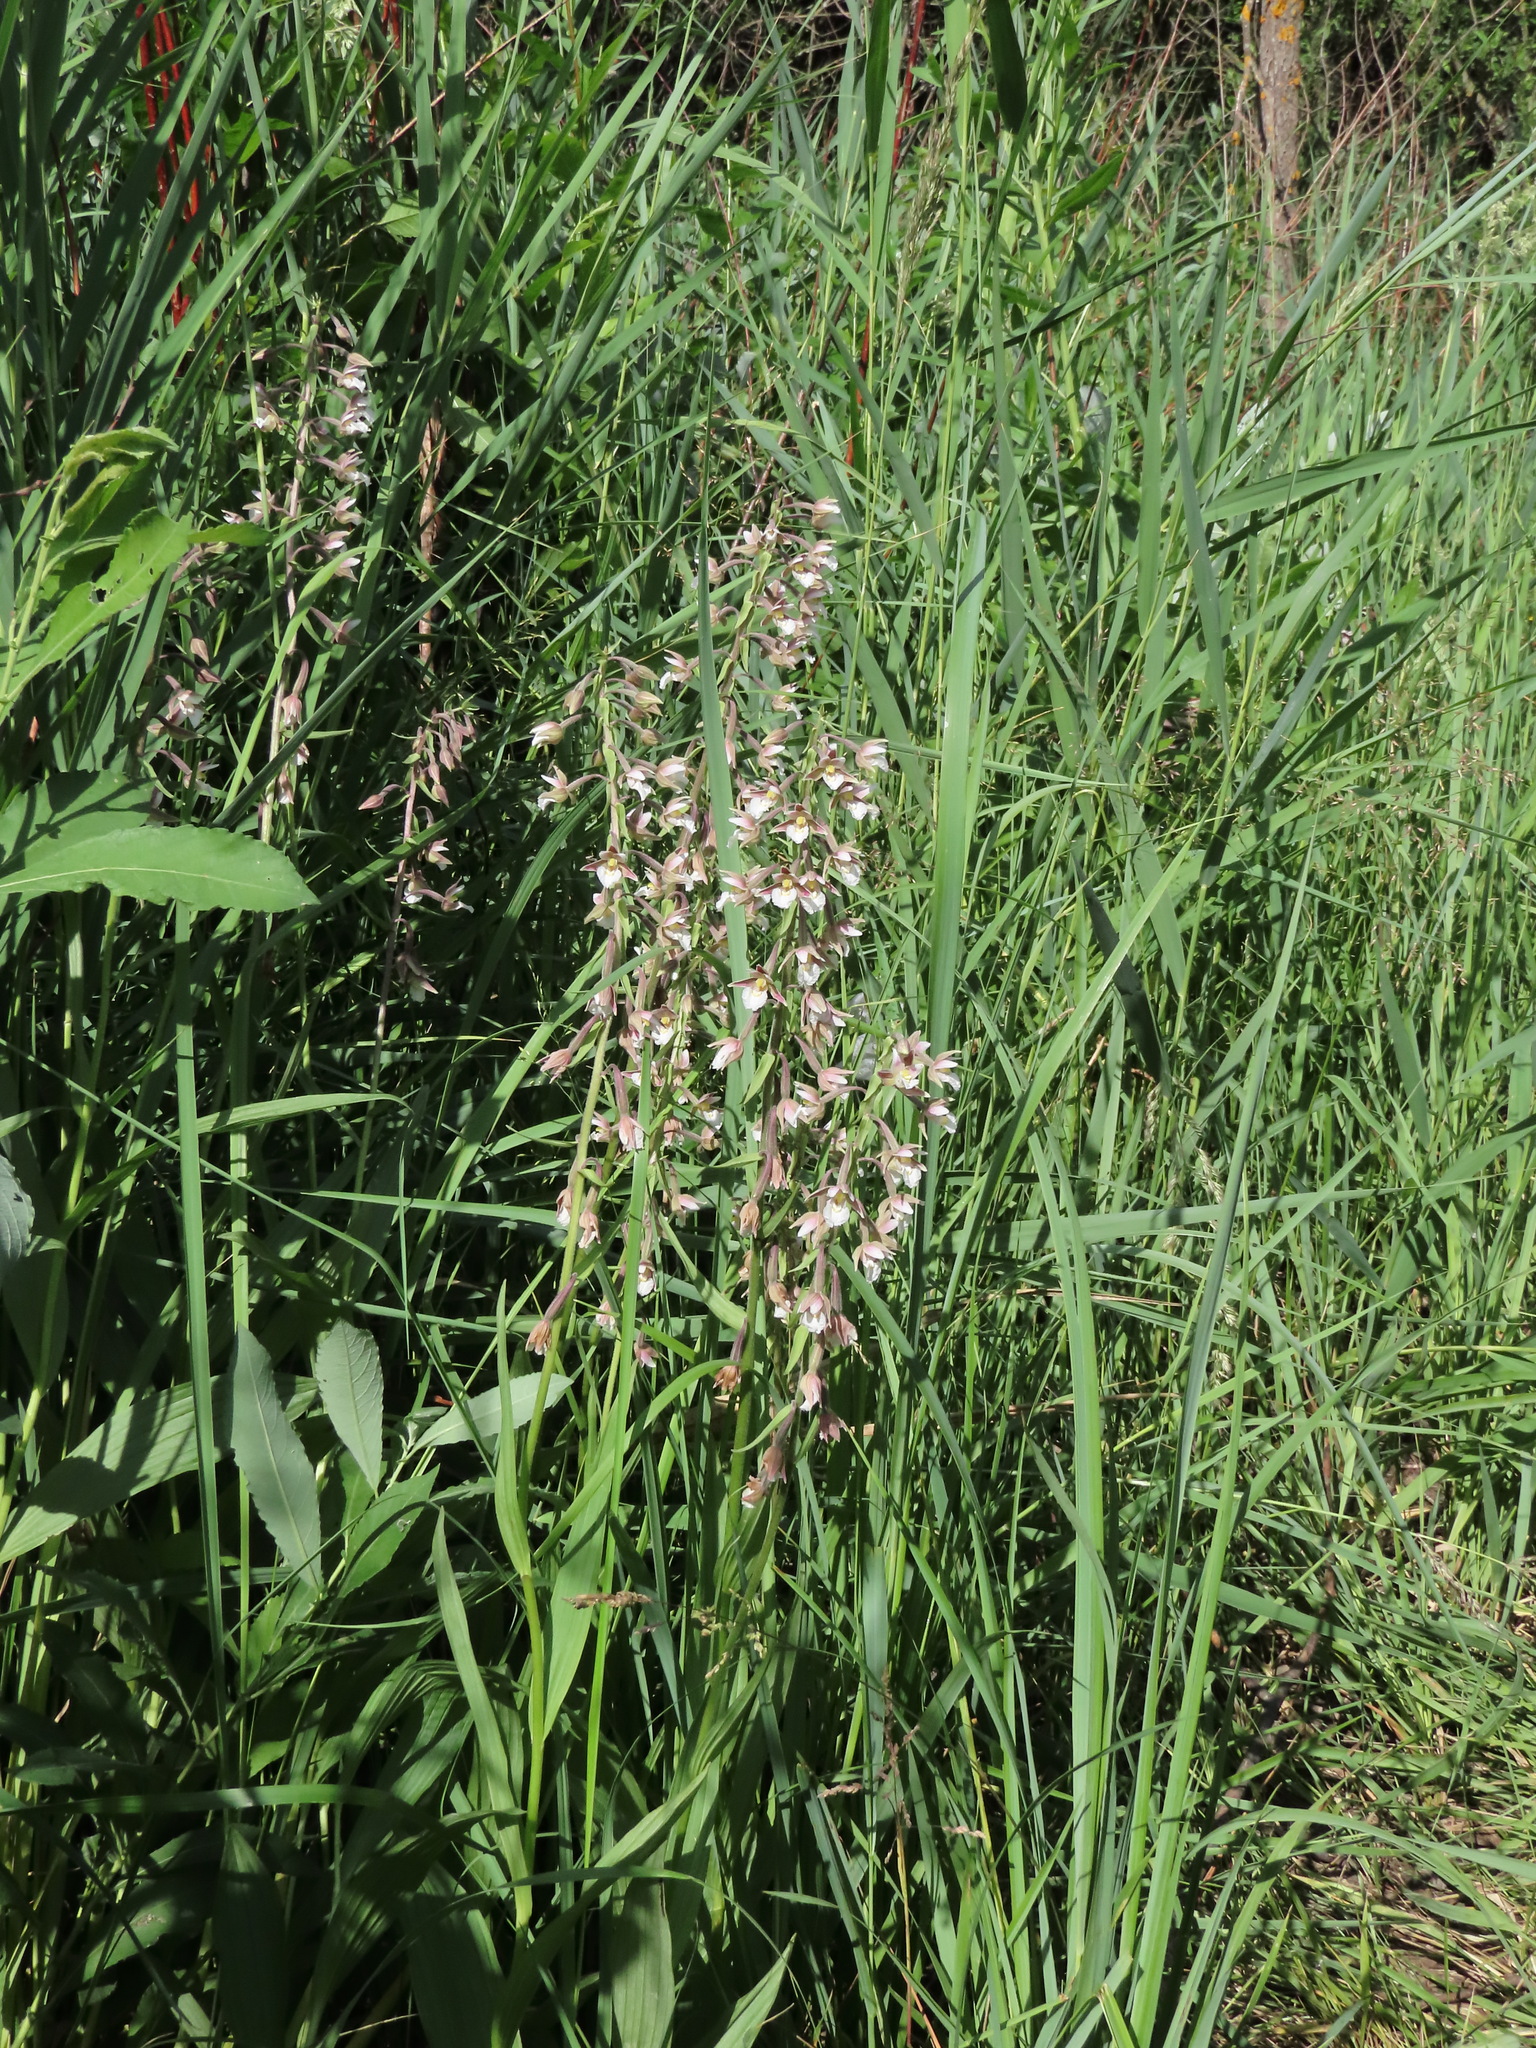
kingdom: Plantae
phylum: Tracheophyta
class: Liliopsida
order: Asparagales
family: Orchidaceae
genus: Epipactis
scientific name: Epipactis palustris
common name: Marsh helleborine
